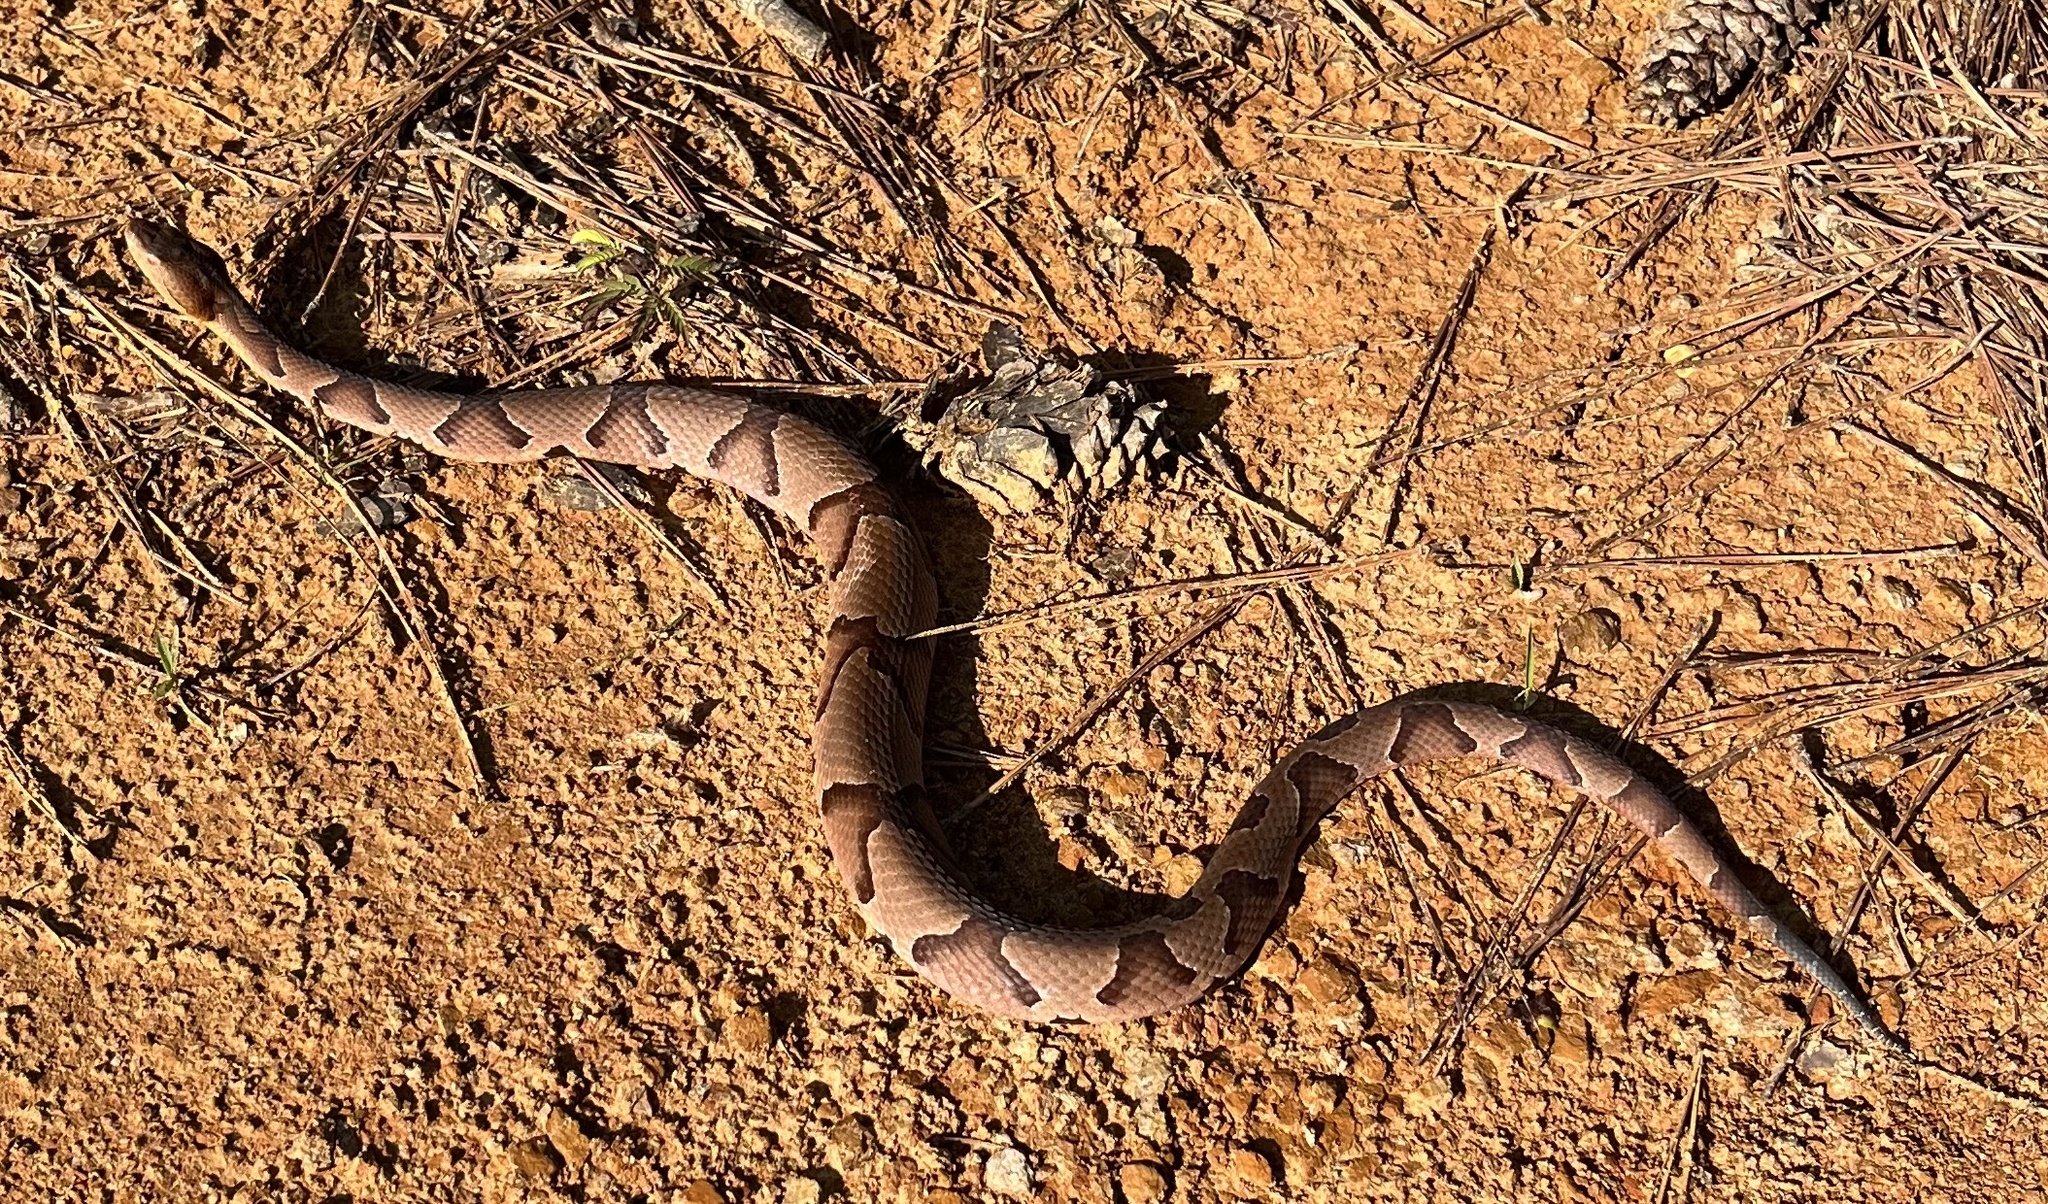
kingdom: Animalia
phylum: Chordata
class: Squamata
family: Viperidae
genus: Agkistrodon
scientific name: Agkistrodon contortrix
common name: Northern copperhead
